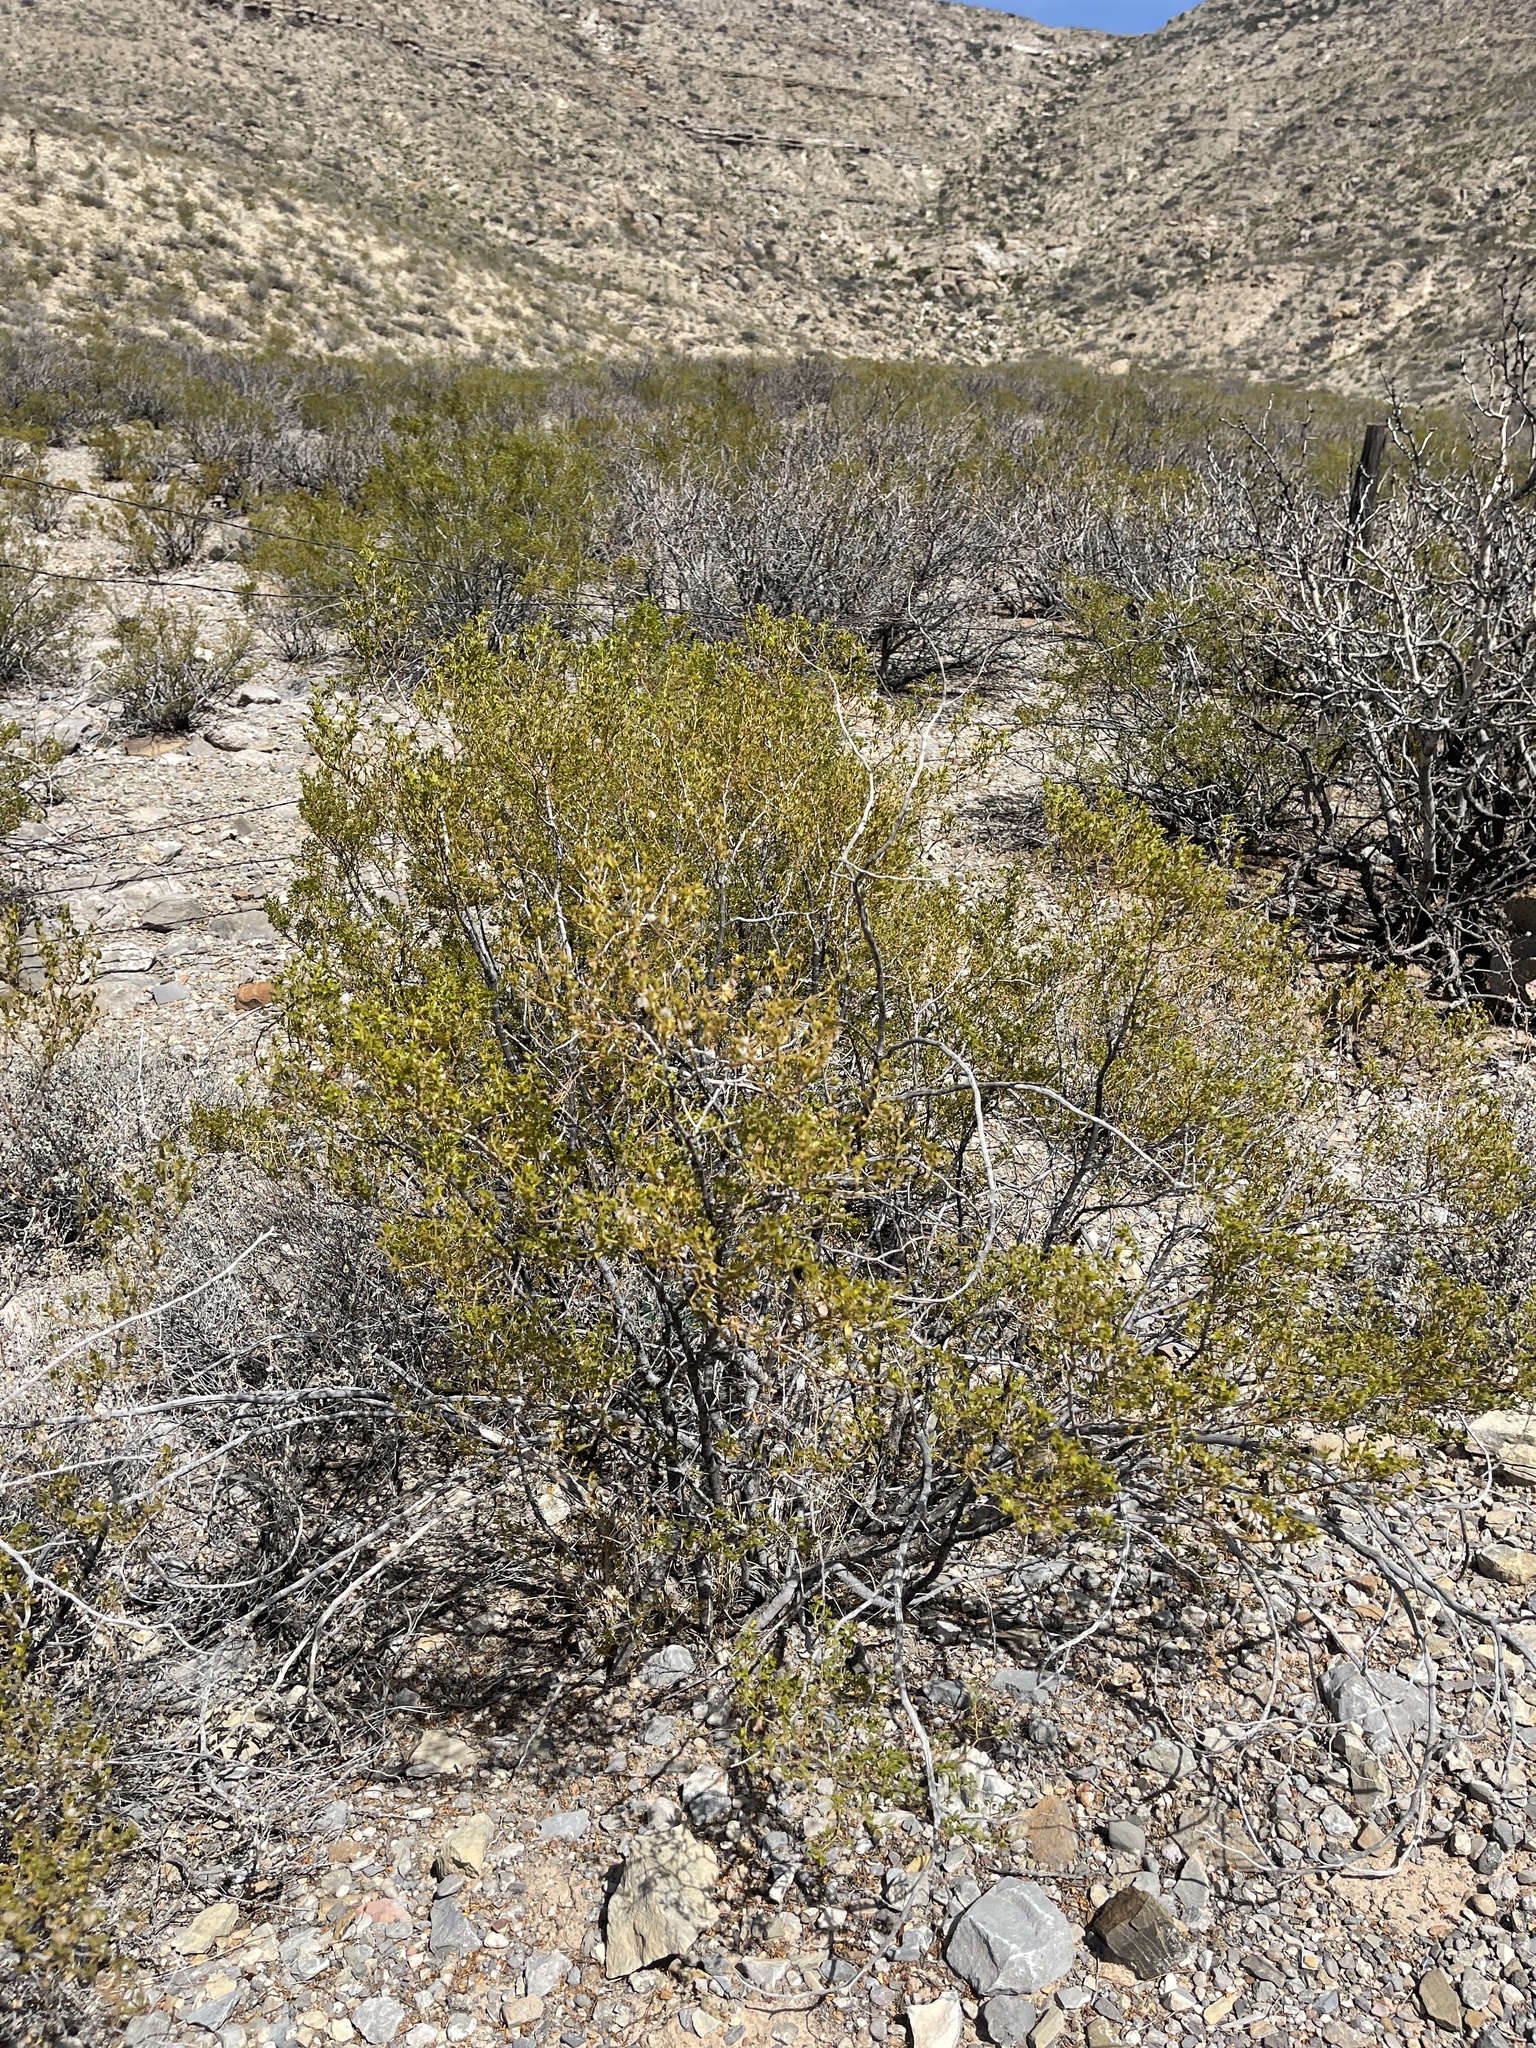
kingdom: Plantae
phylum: Tracheophyta
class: Magnoliopsida
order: Zygophyllales
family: Zygophyllaceae
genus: Larrea
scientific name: Larrea tridentata
